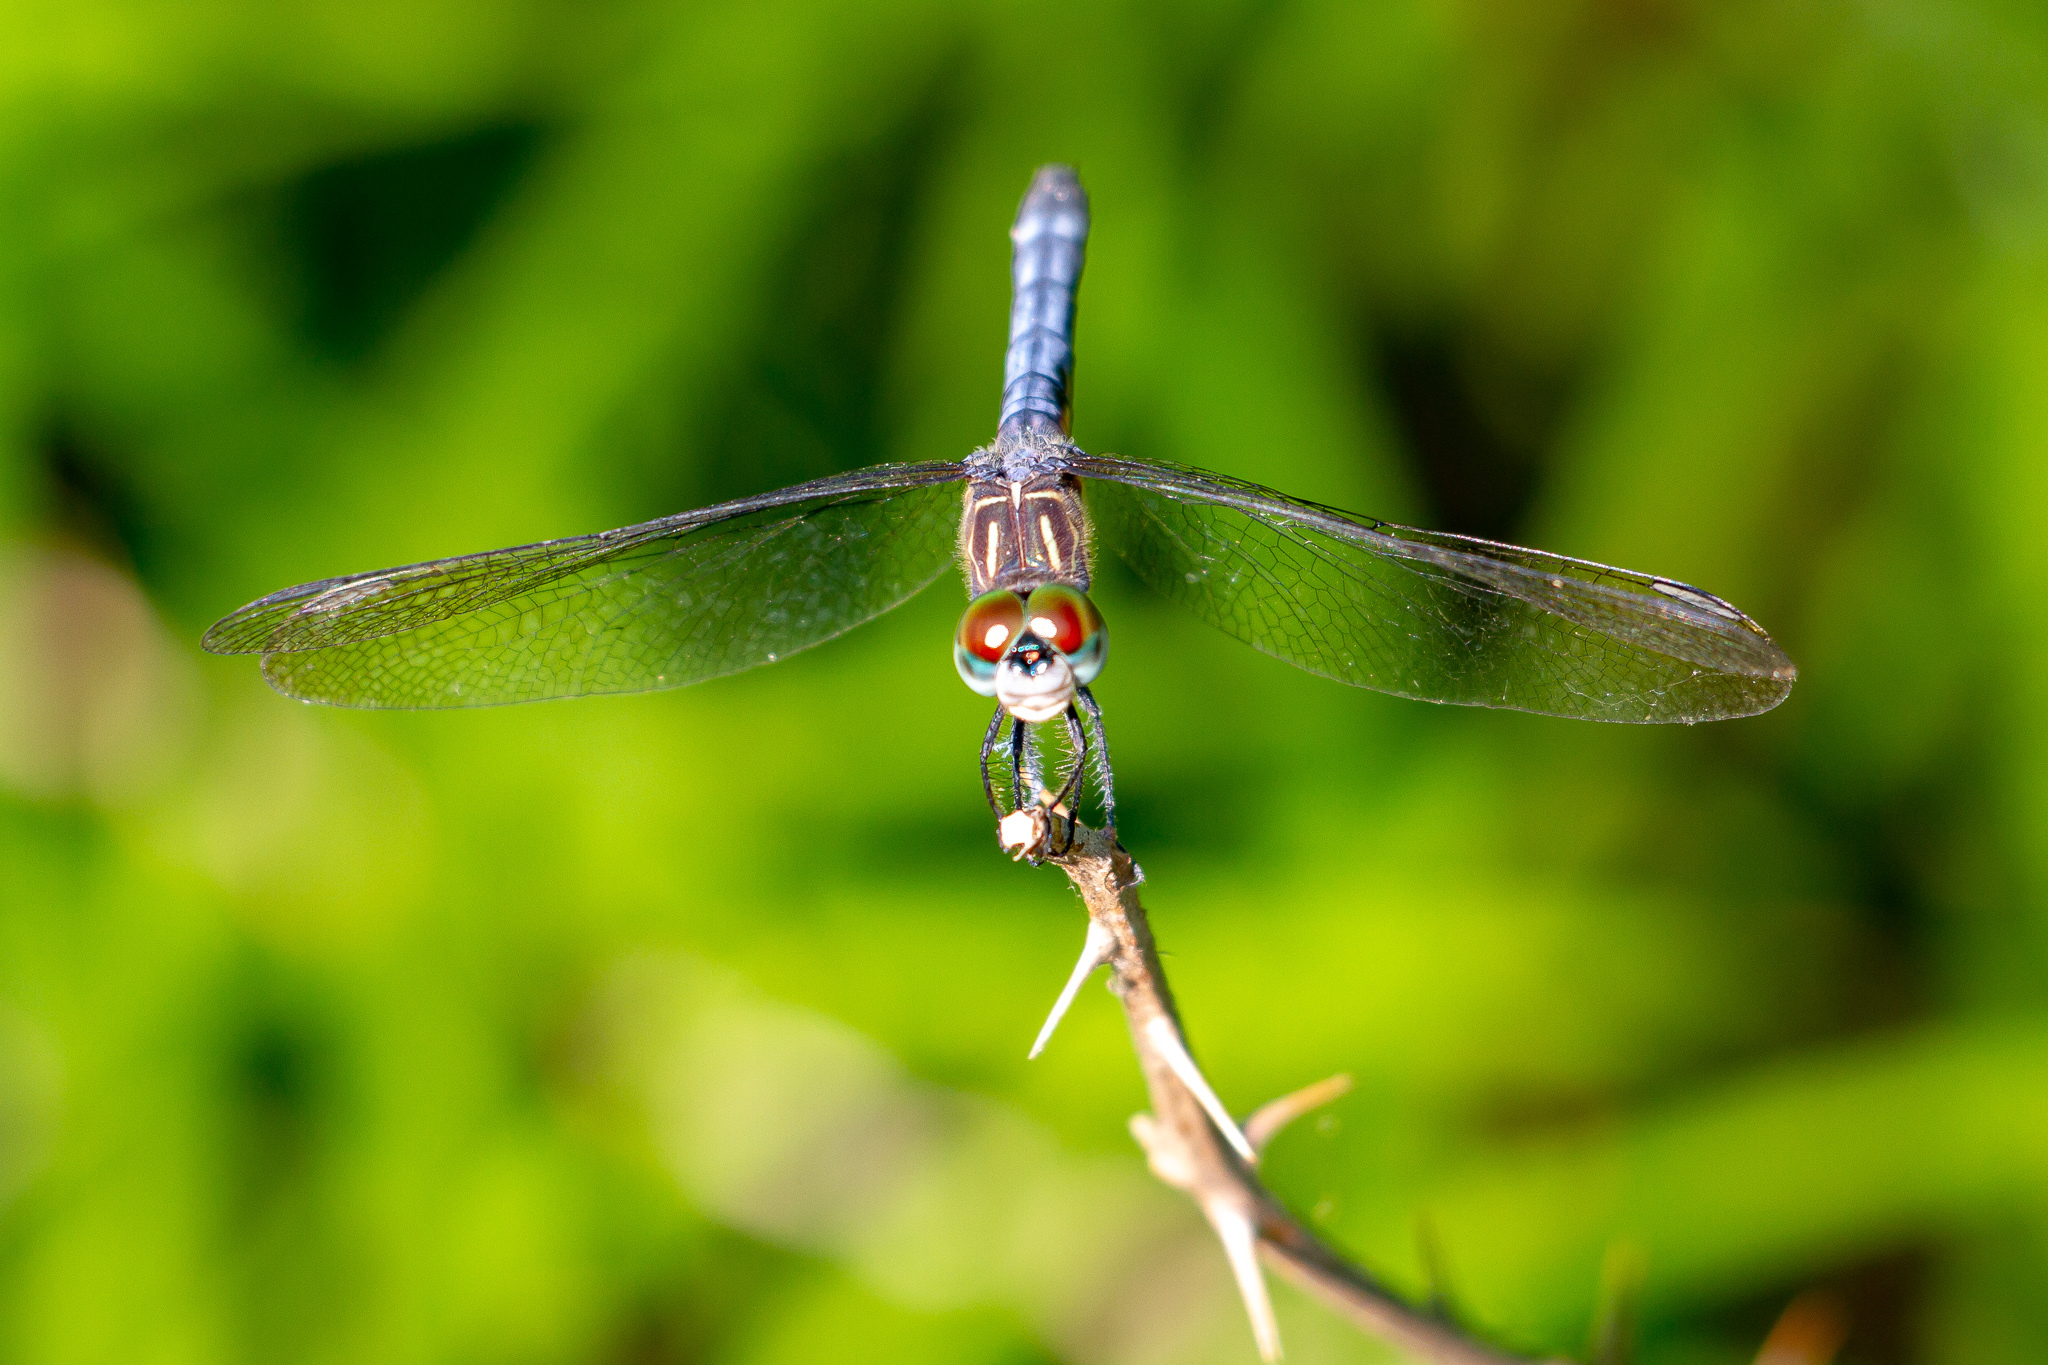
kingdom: Animalia
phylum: Arthropoda
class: Insecta
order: Odonata
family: Libellulidae
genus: Pachydiplax
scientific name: Pachydiplax longipennis
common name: Blue dasher
